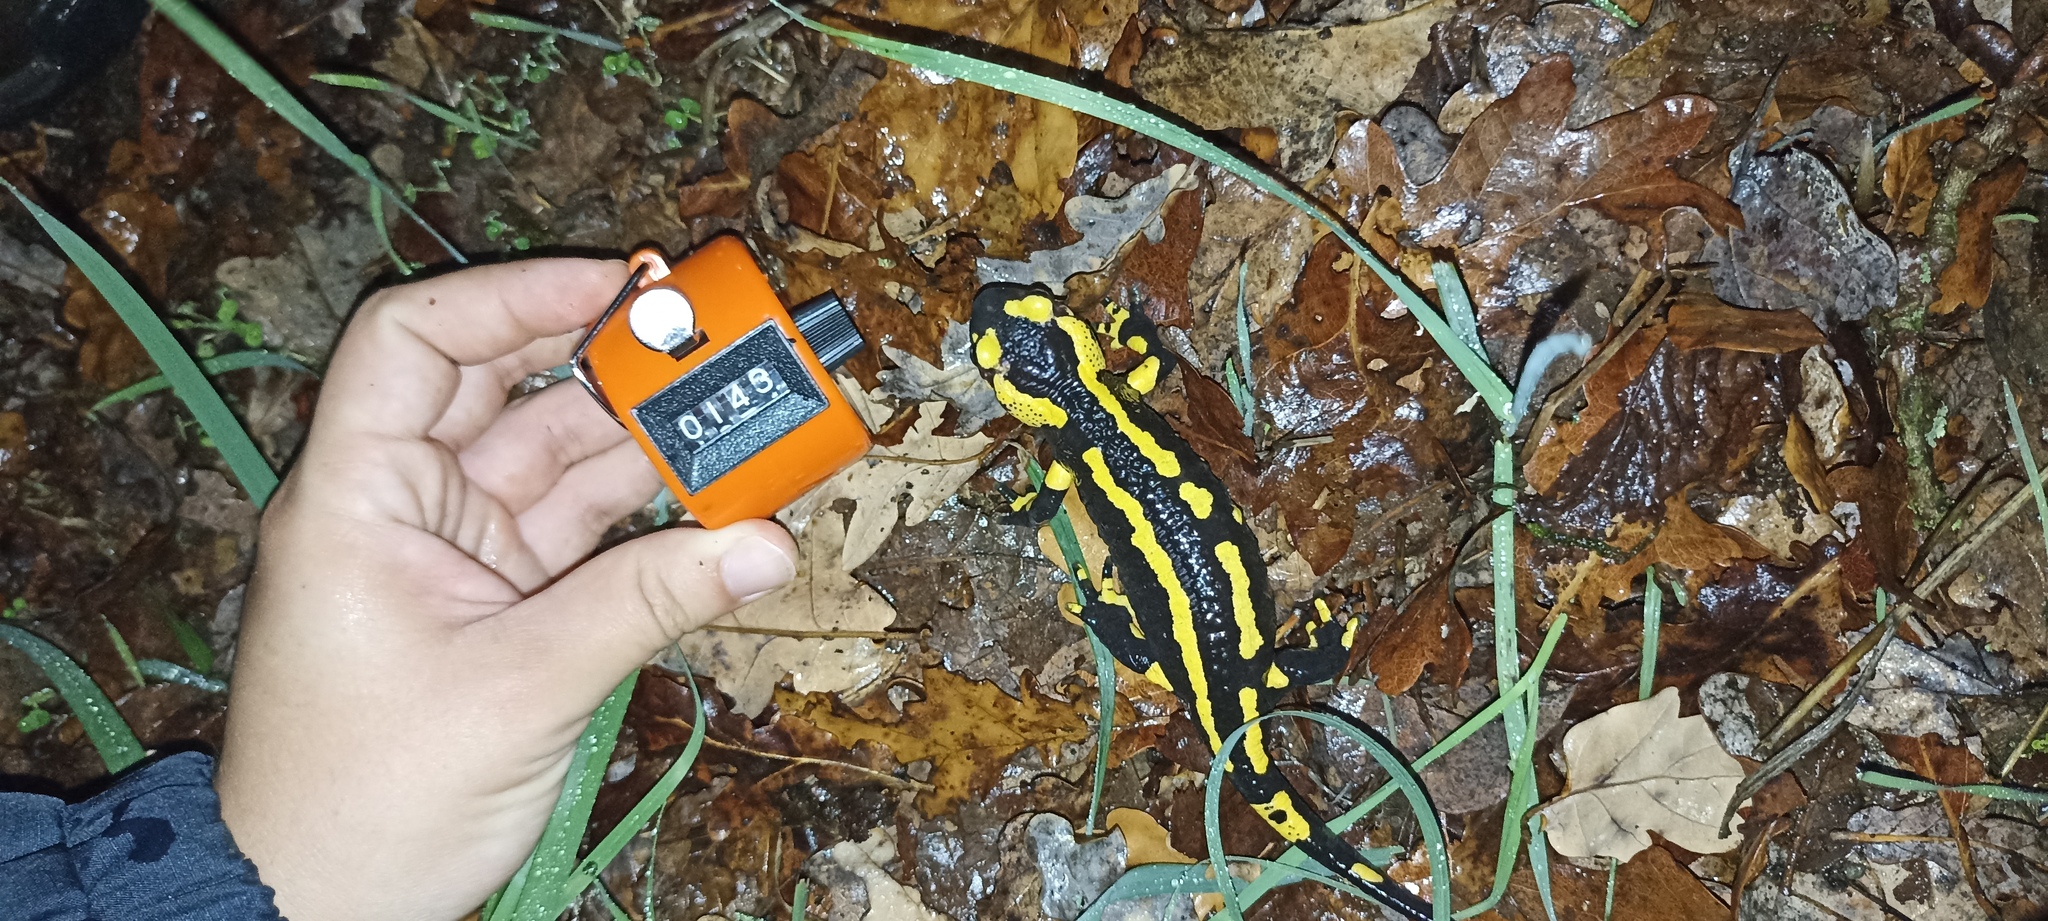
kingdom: Animalia
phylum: Chordata
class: Amphibia
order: Caudata
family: Salamandridae
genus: Salamandra
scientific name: Salamandra salamandra
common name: Fire salamander
